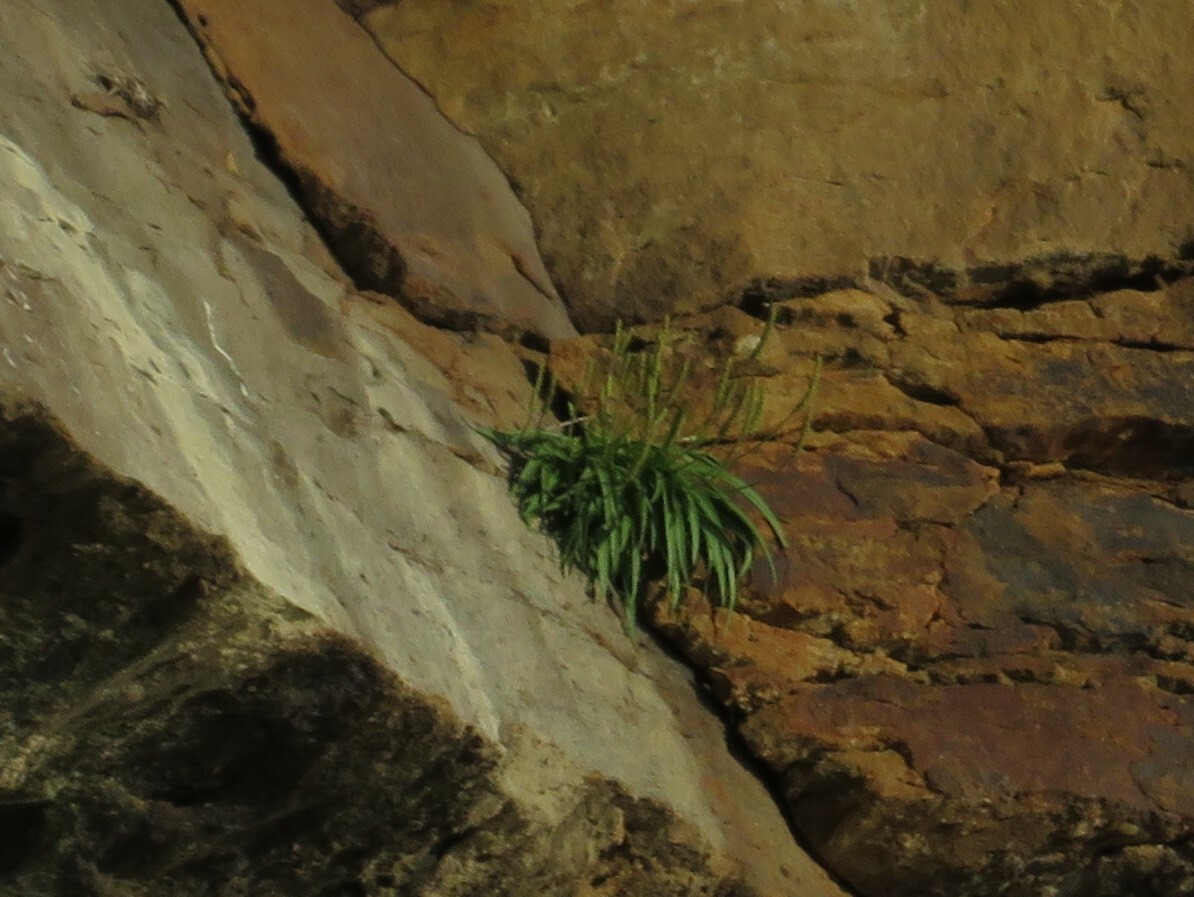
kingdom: Plantae
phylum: Tracheophyta
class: Magnoliopsida
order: Lamiales
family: Plantaginaceae
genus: Plantago
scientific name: Plantago maritima
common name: Sea plantain
